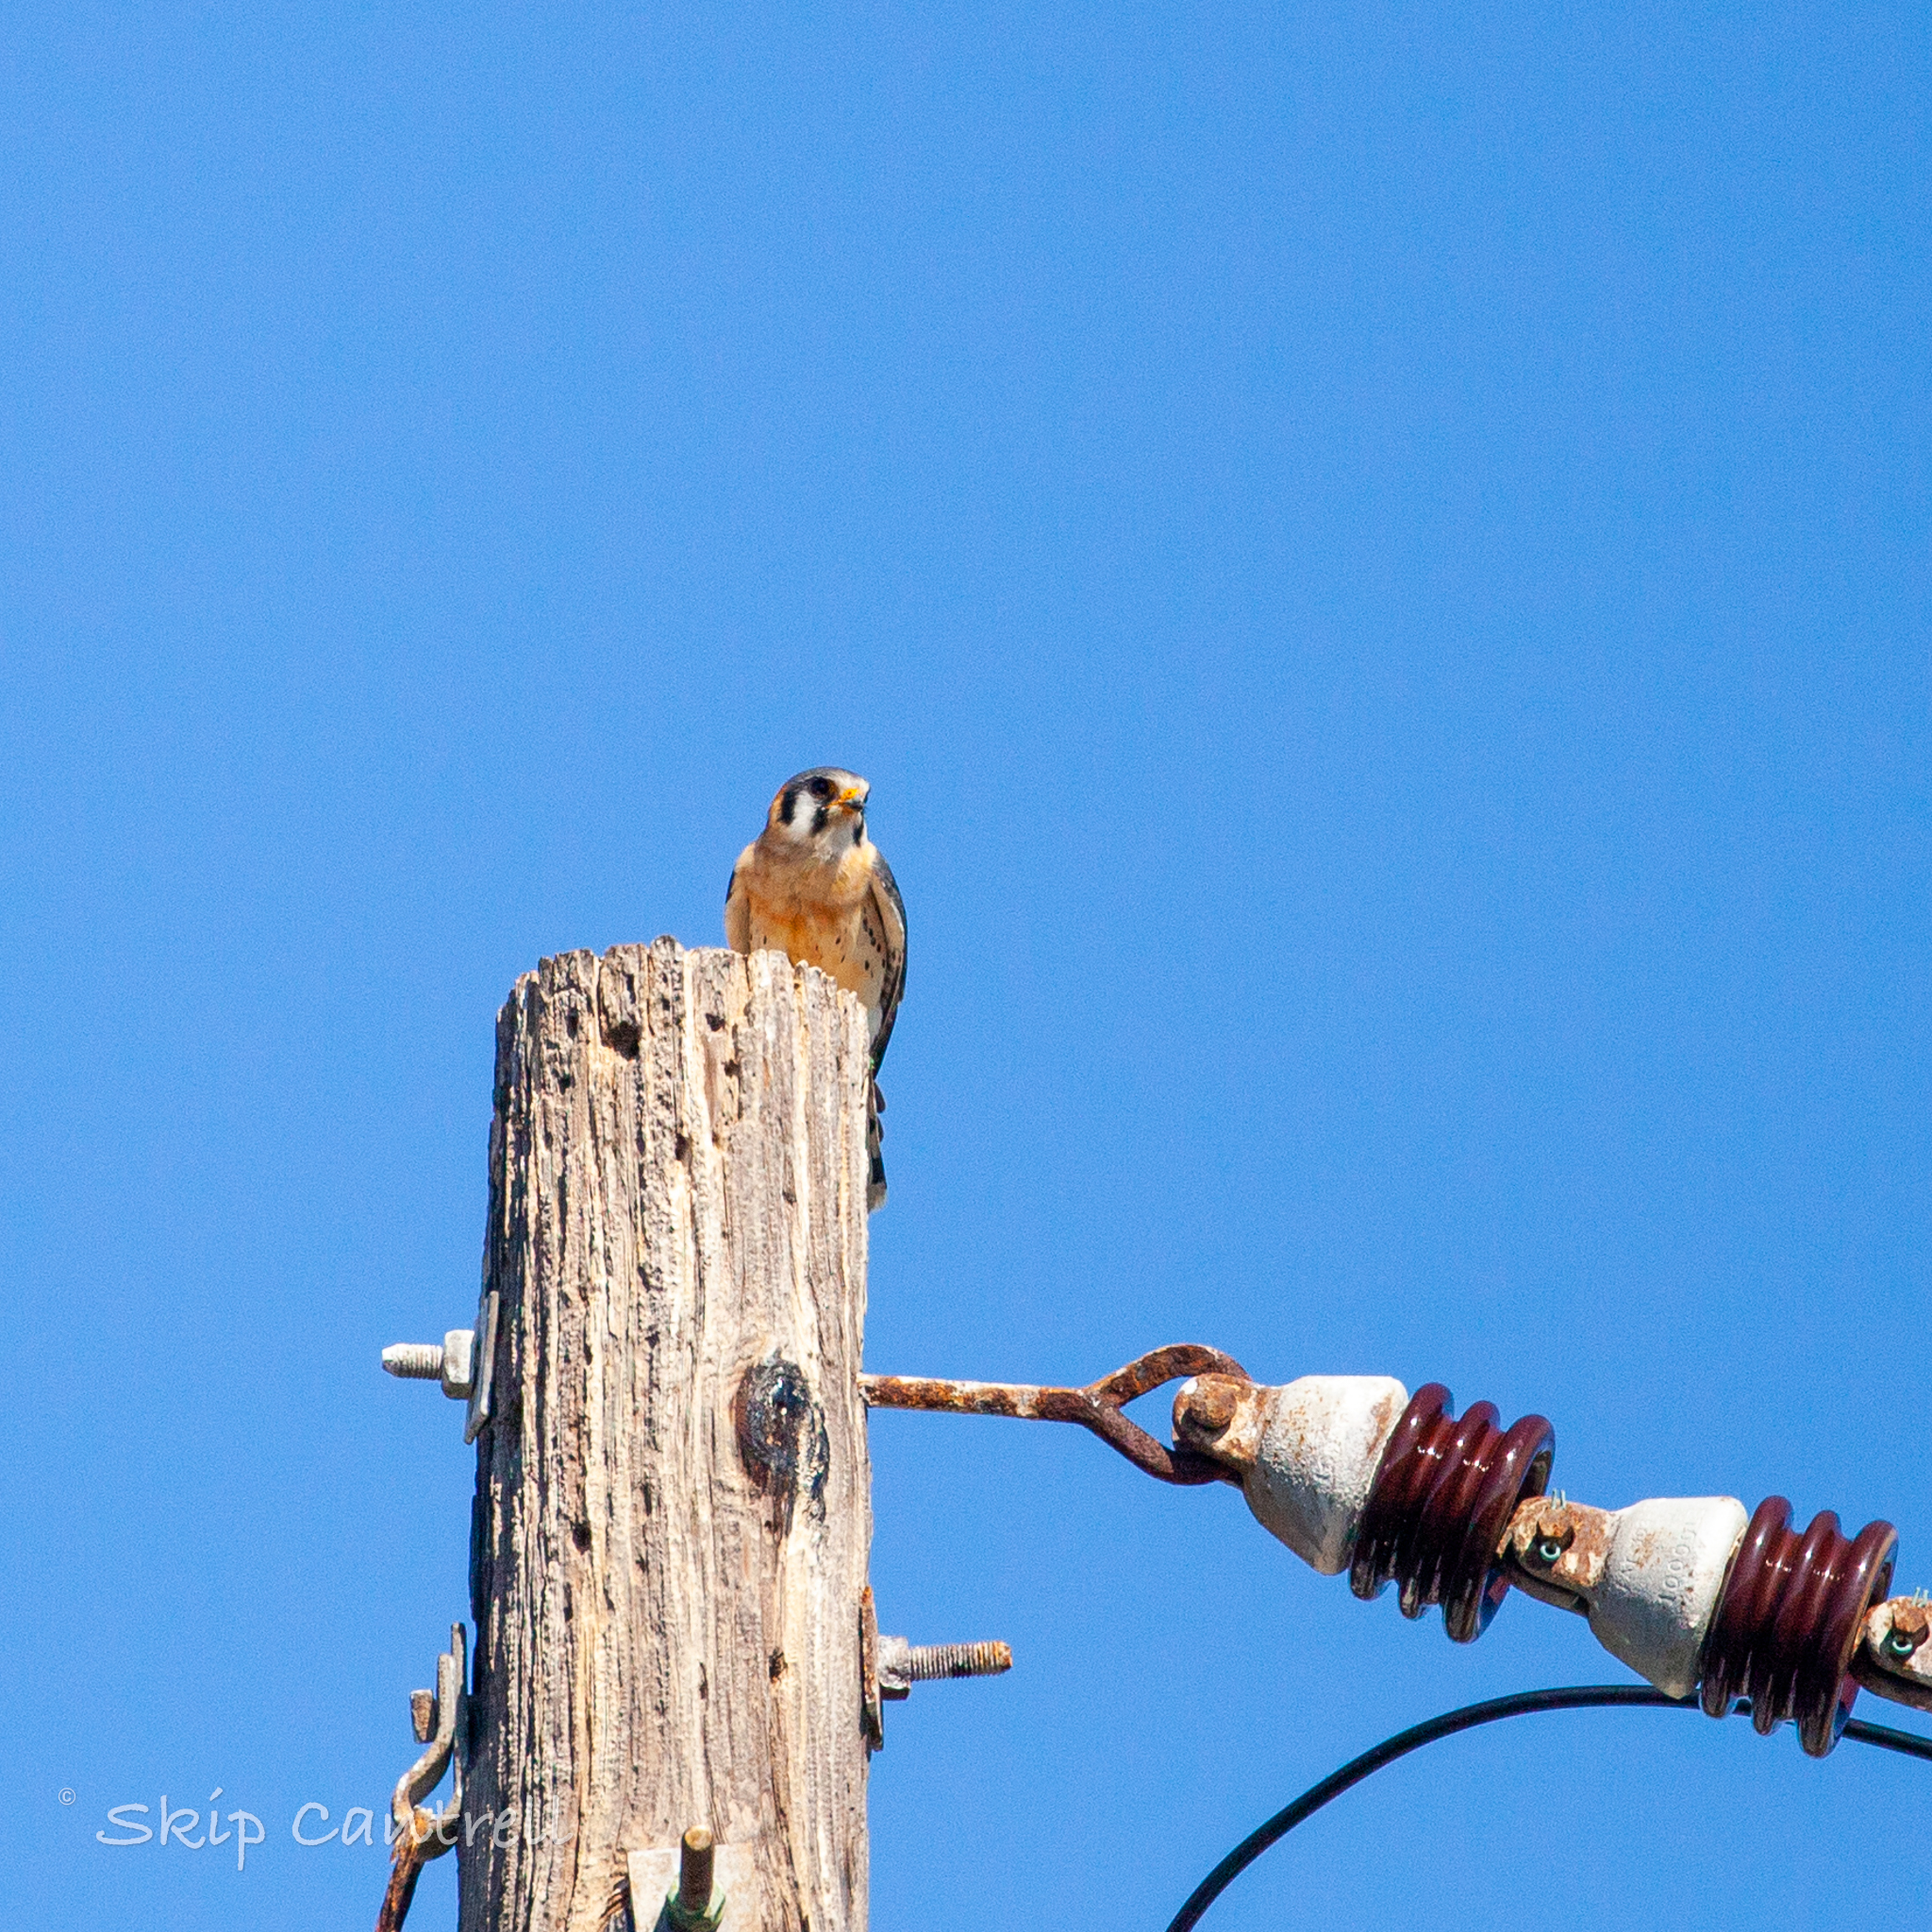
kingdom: Animalia
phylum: Chordata
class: Aves
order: Falconiformes
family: Falconidae
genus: Falco
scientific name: Falco sparverius
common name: American kestrel
